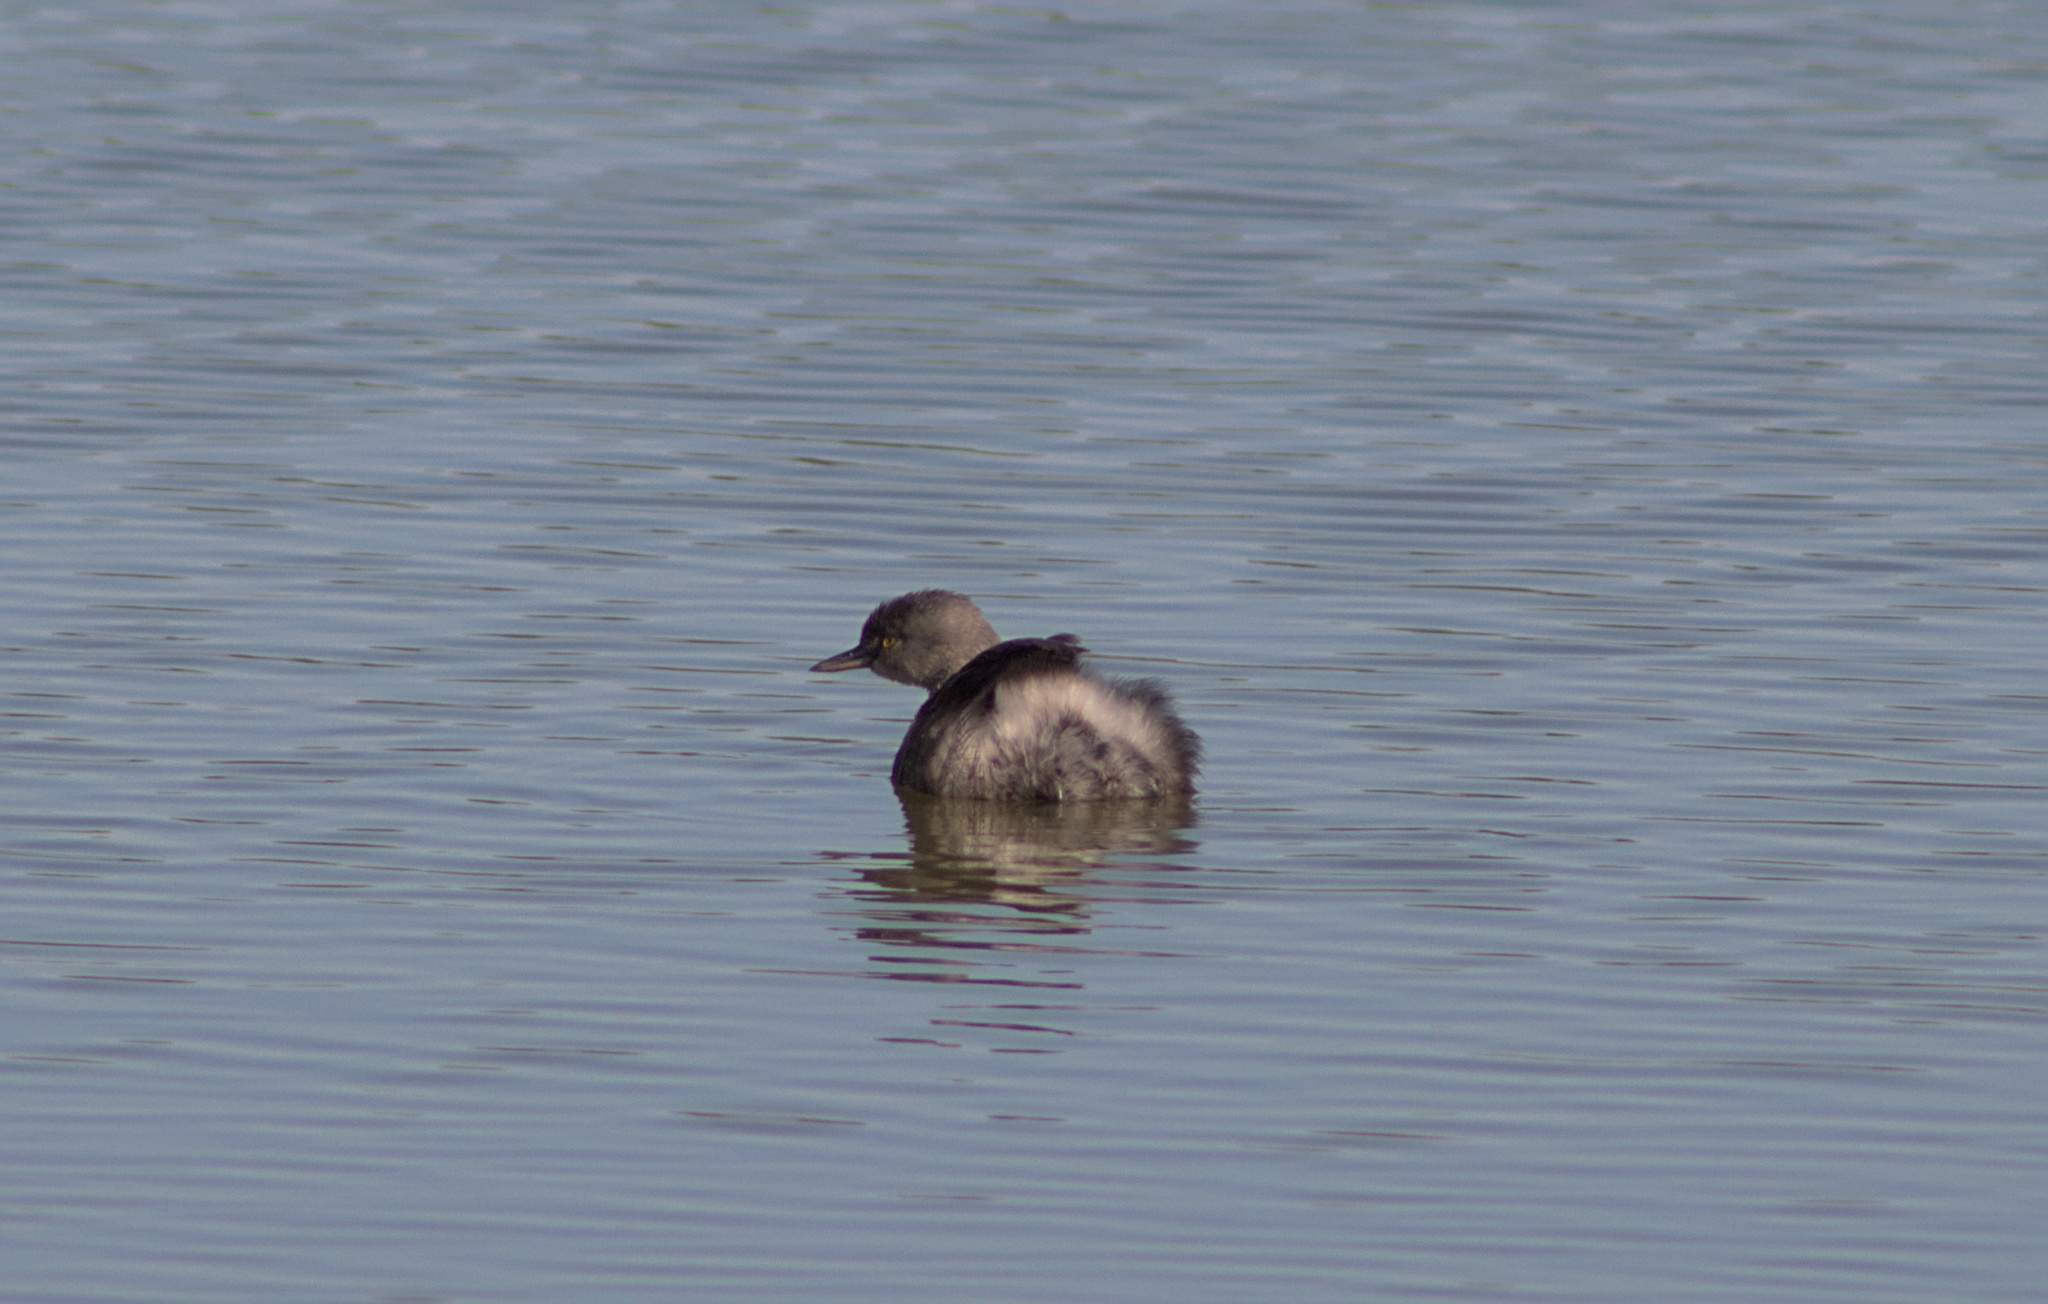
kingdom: Animalia
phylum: Chordata
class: Aves
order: Podicipediformes
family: Podicipedidae
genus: Tachybaptus
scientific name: Tachybaptus dominicus
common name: Least grebe
